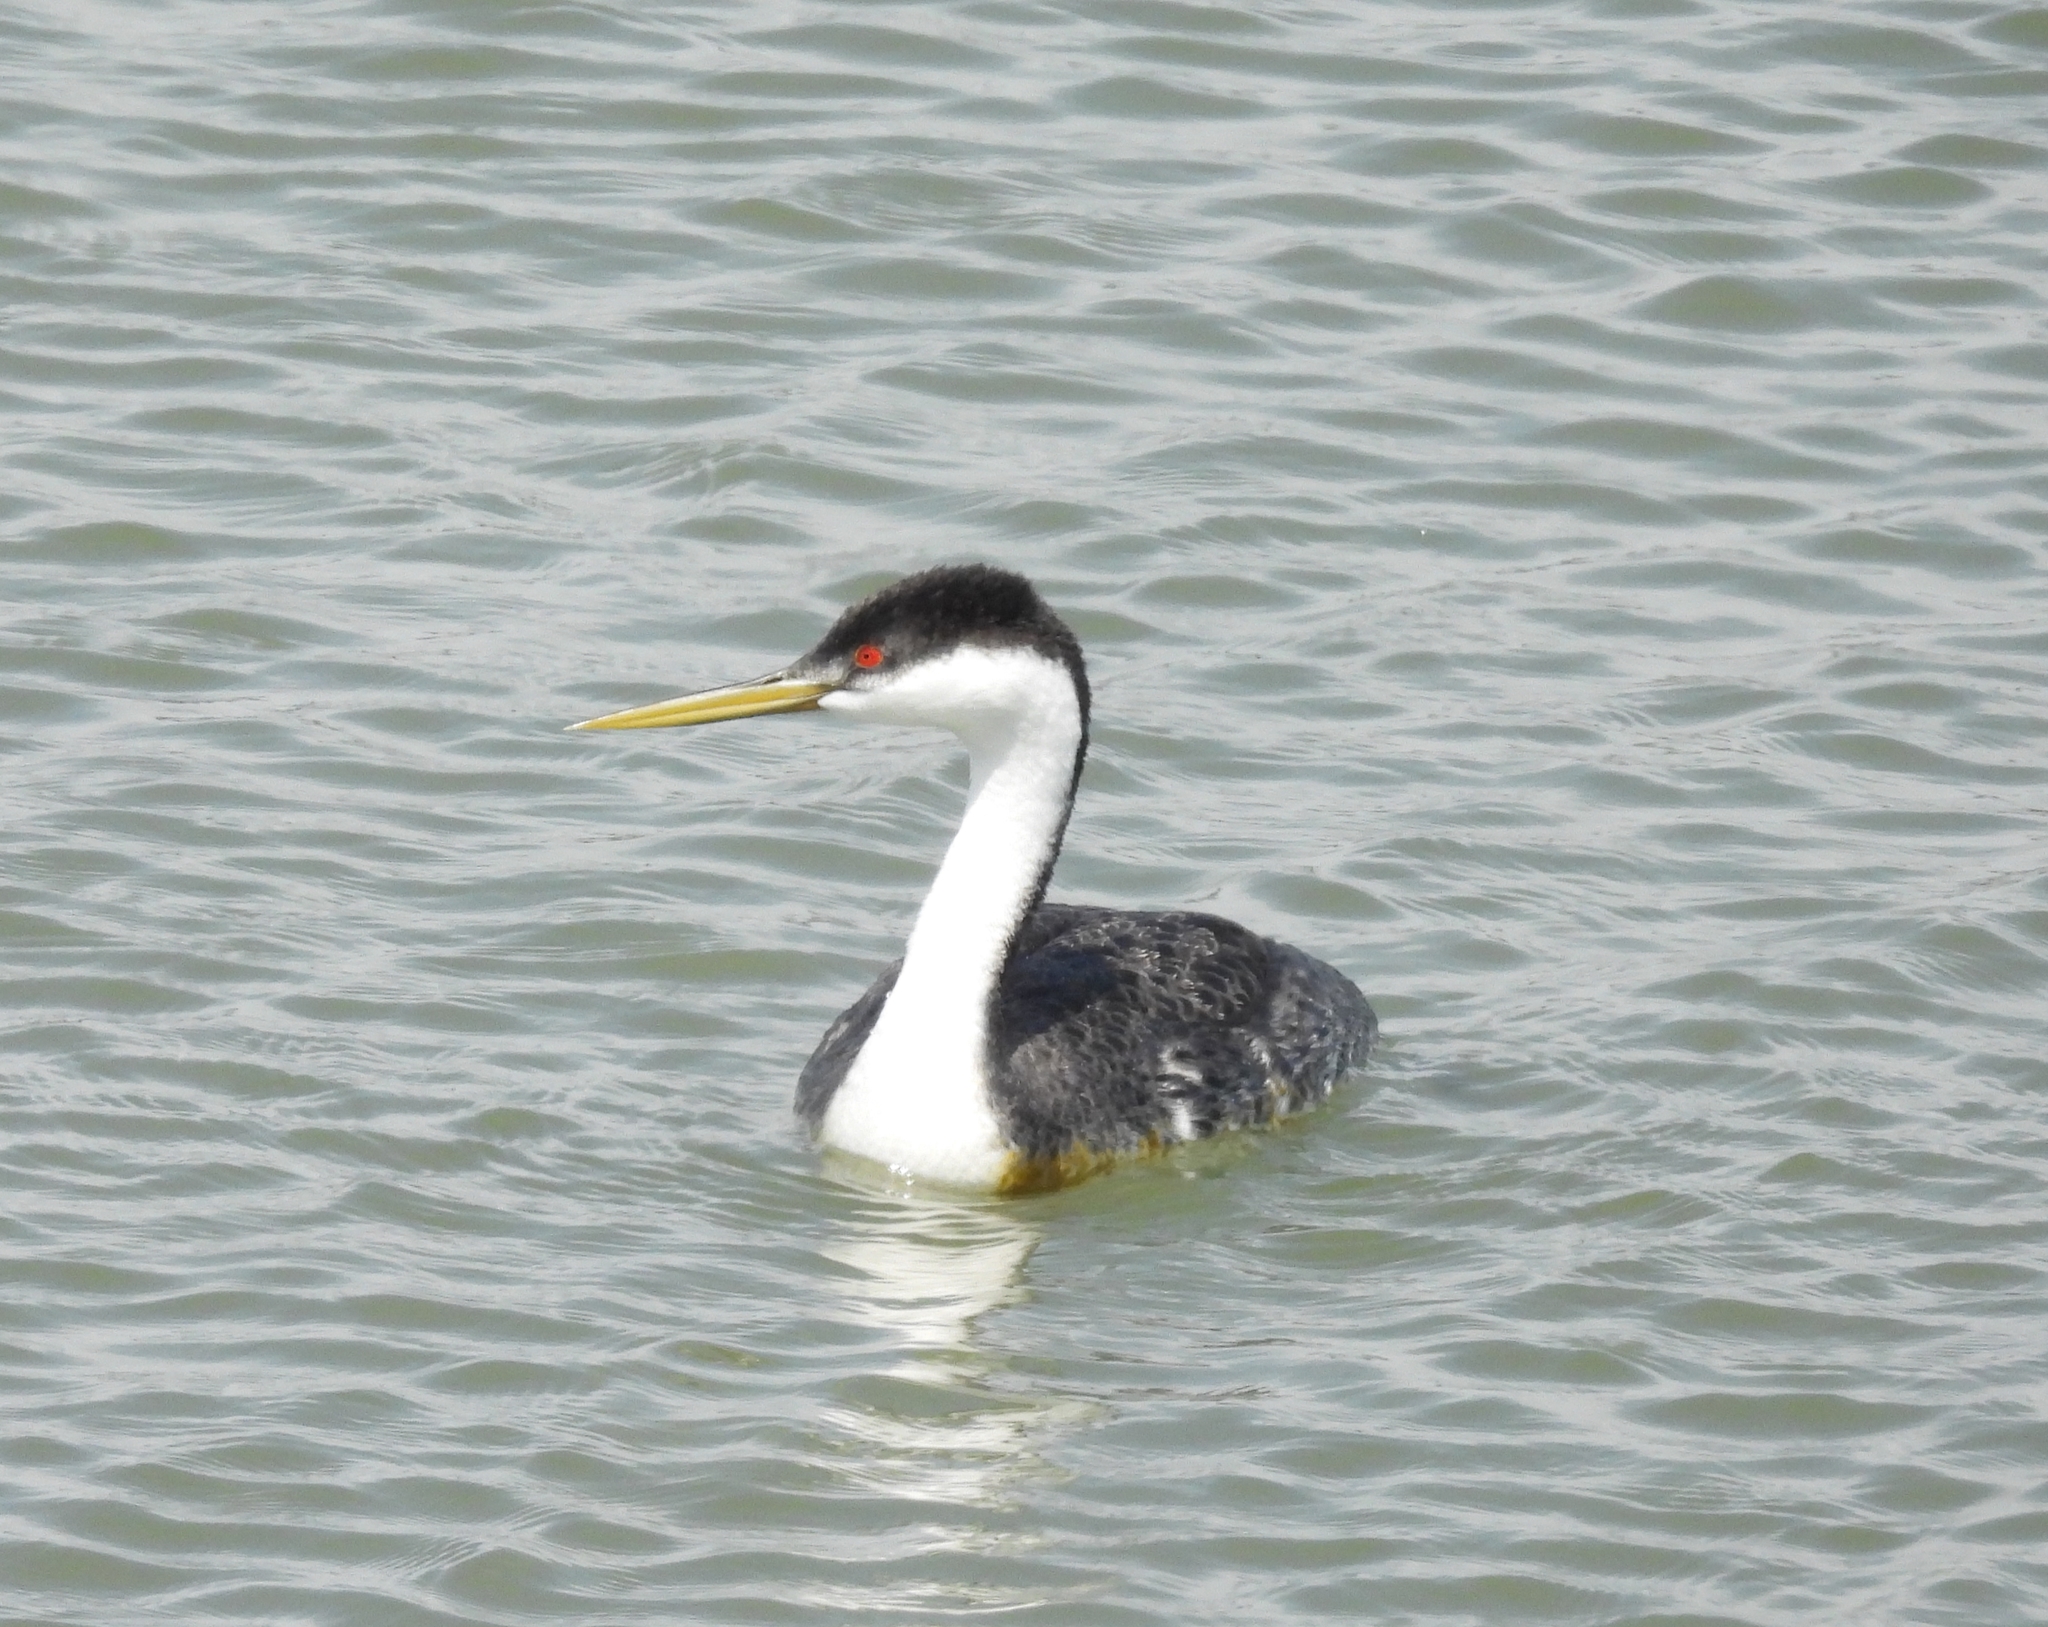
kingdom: Animalia
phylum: Chordata
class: Aves
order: Podicipediformes
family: Podicipedidae
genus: Aechmophorus
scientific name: Aechmophorus occidentalis
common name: Western grebe
